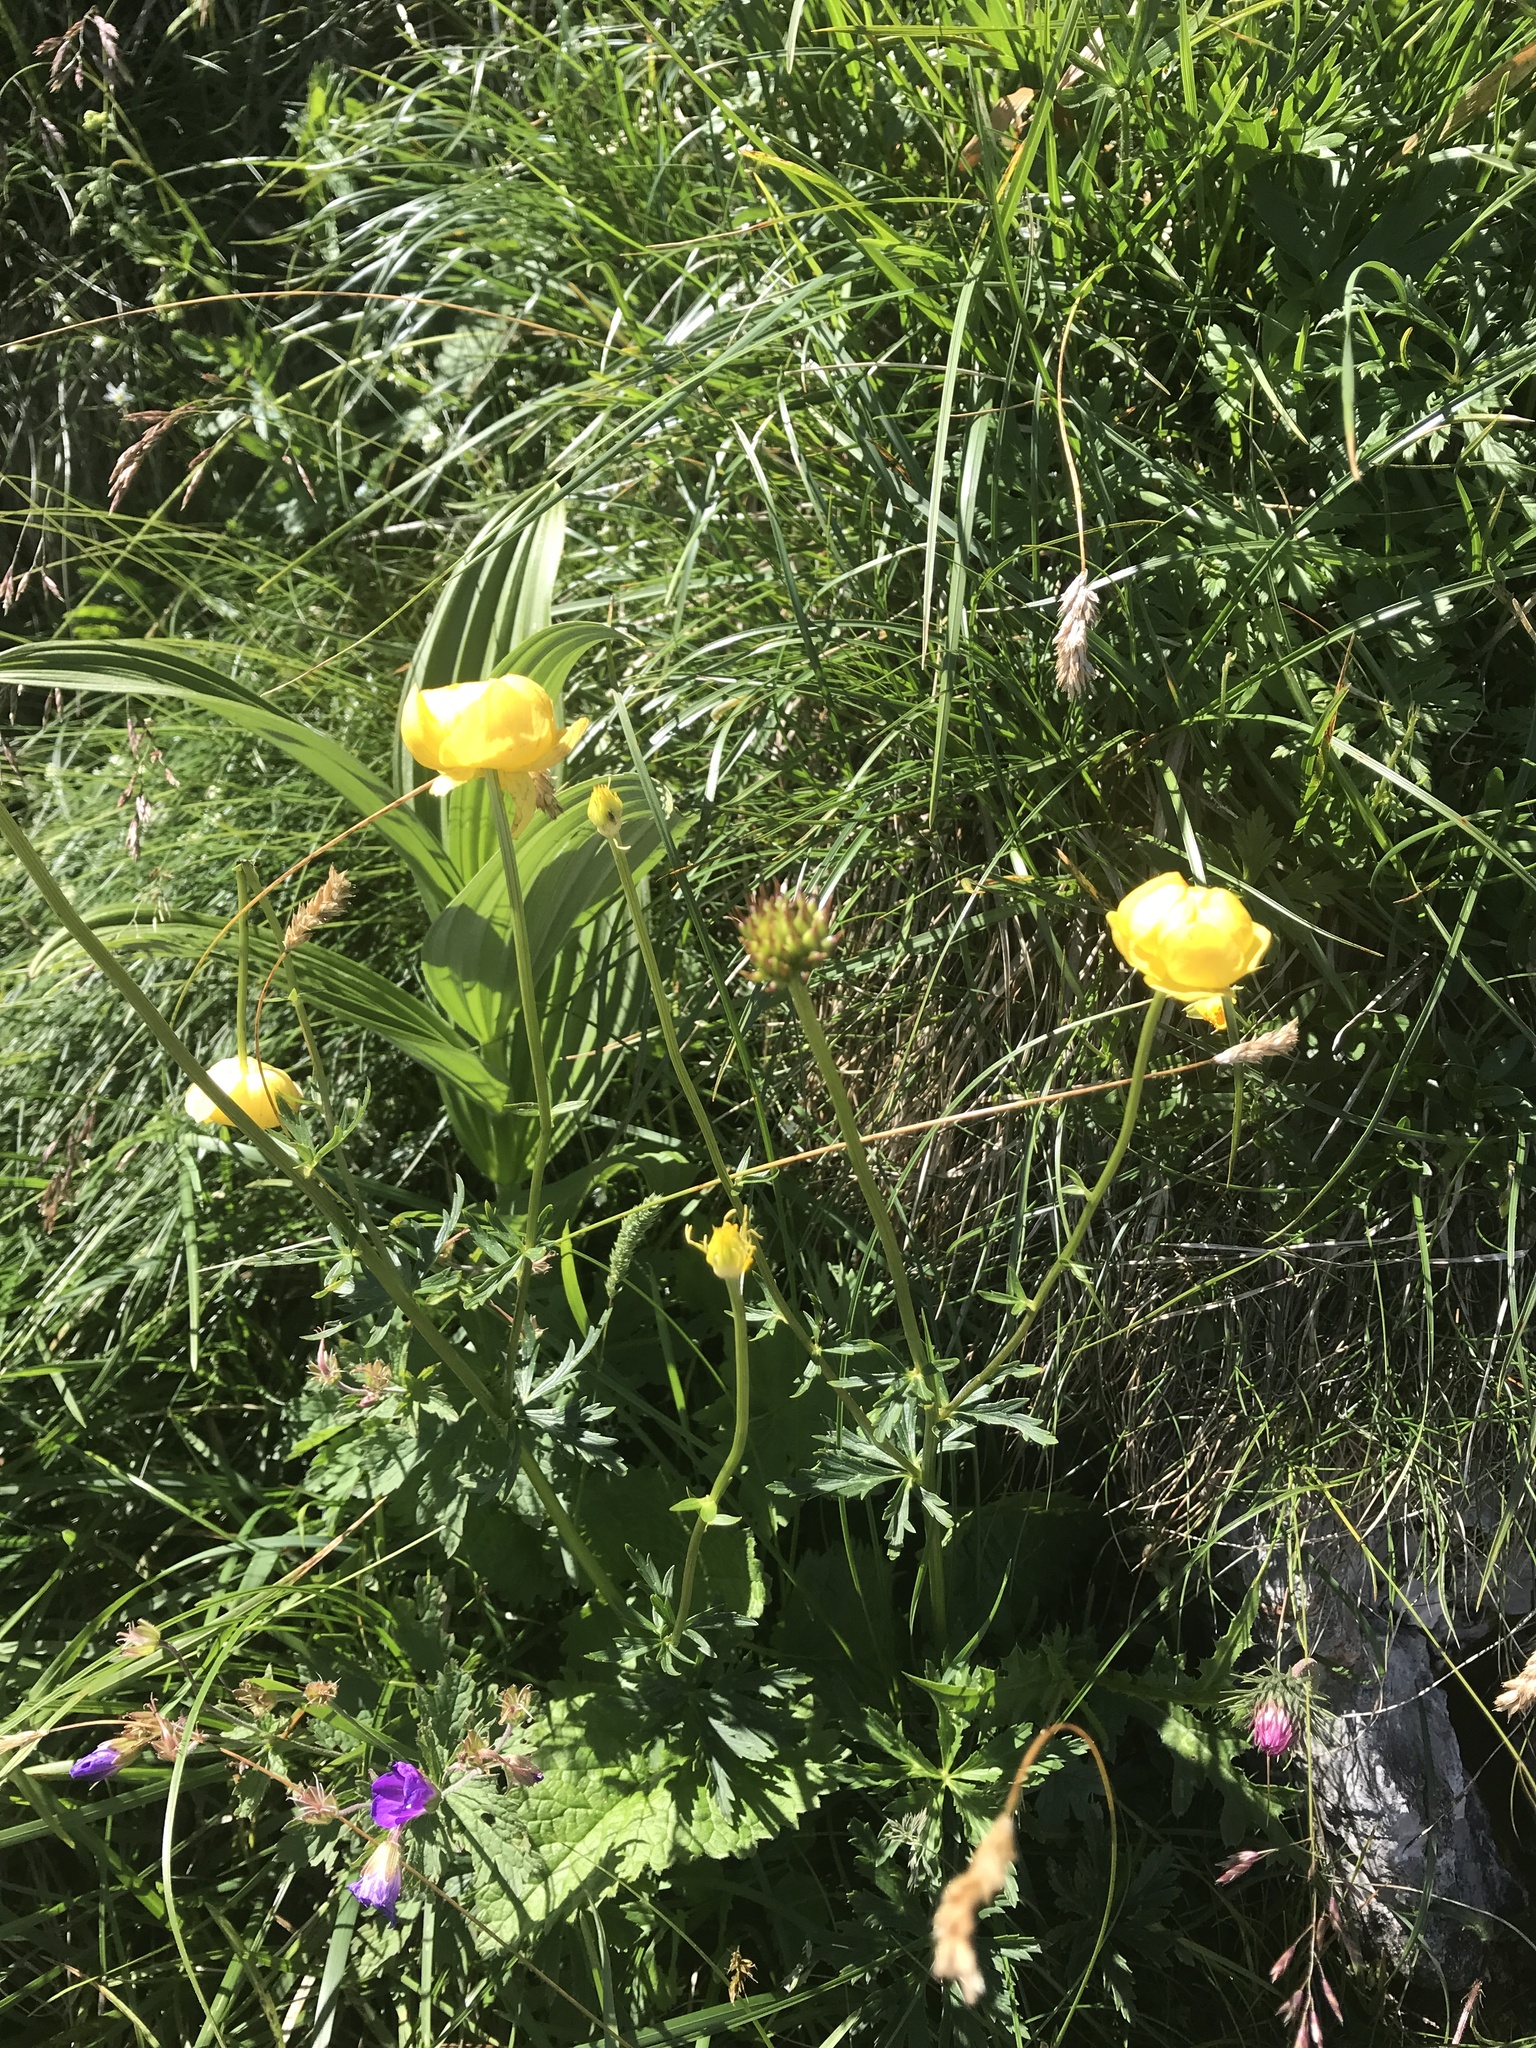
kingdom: Plantae
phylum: Tracheophyta
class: Magnoliopsida
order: Ranunculales
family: Ranunculaceae
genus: Trollius
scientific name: Trollius europaeus
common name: European globeflower
